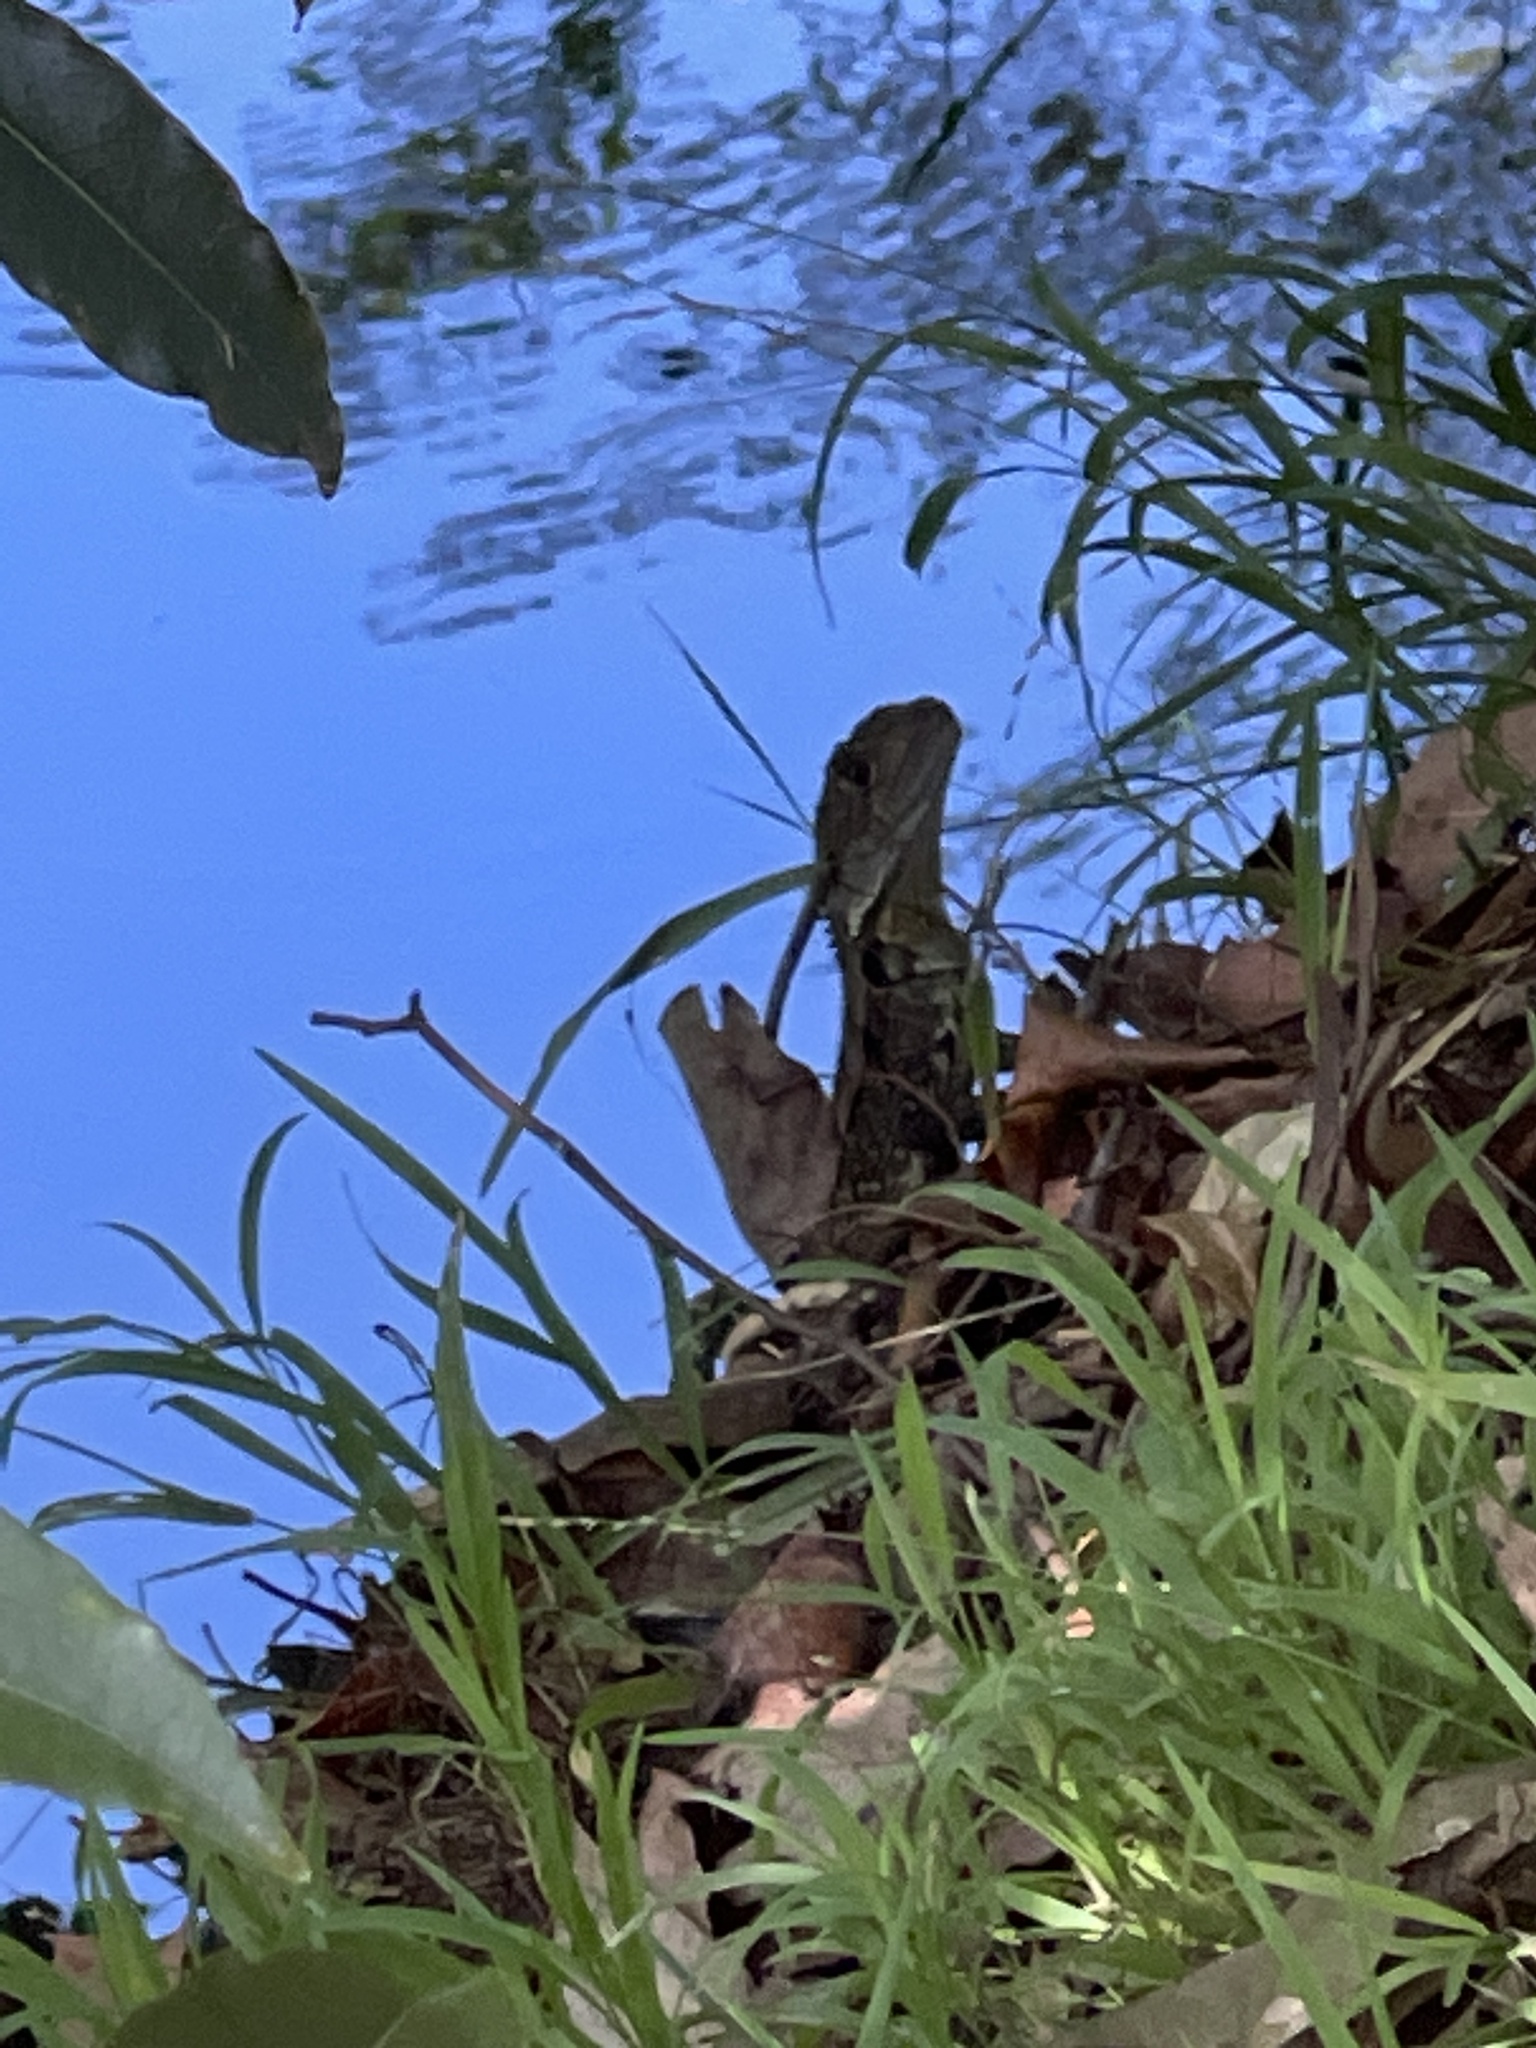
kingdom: Animalia
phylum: Chordata
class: Squamata
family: Agamidae
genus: Intellagama
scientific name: Intellagama lesueurii
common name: Eastern water dragon
